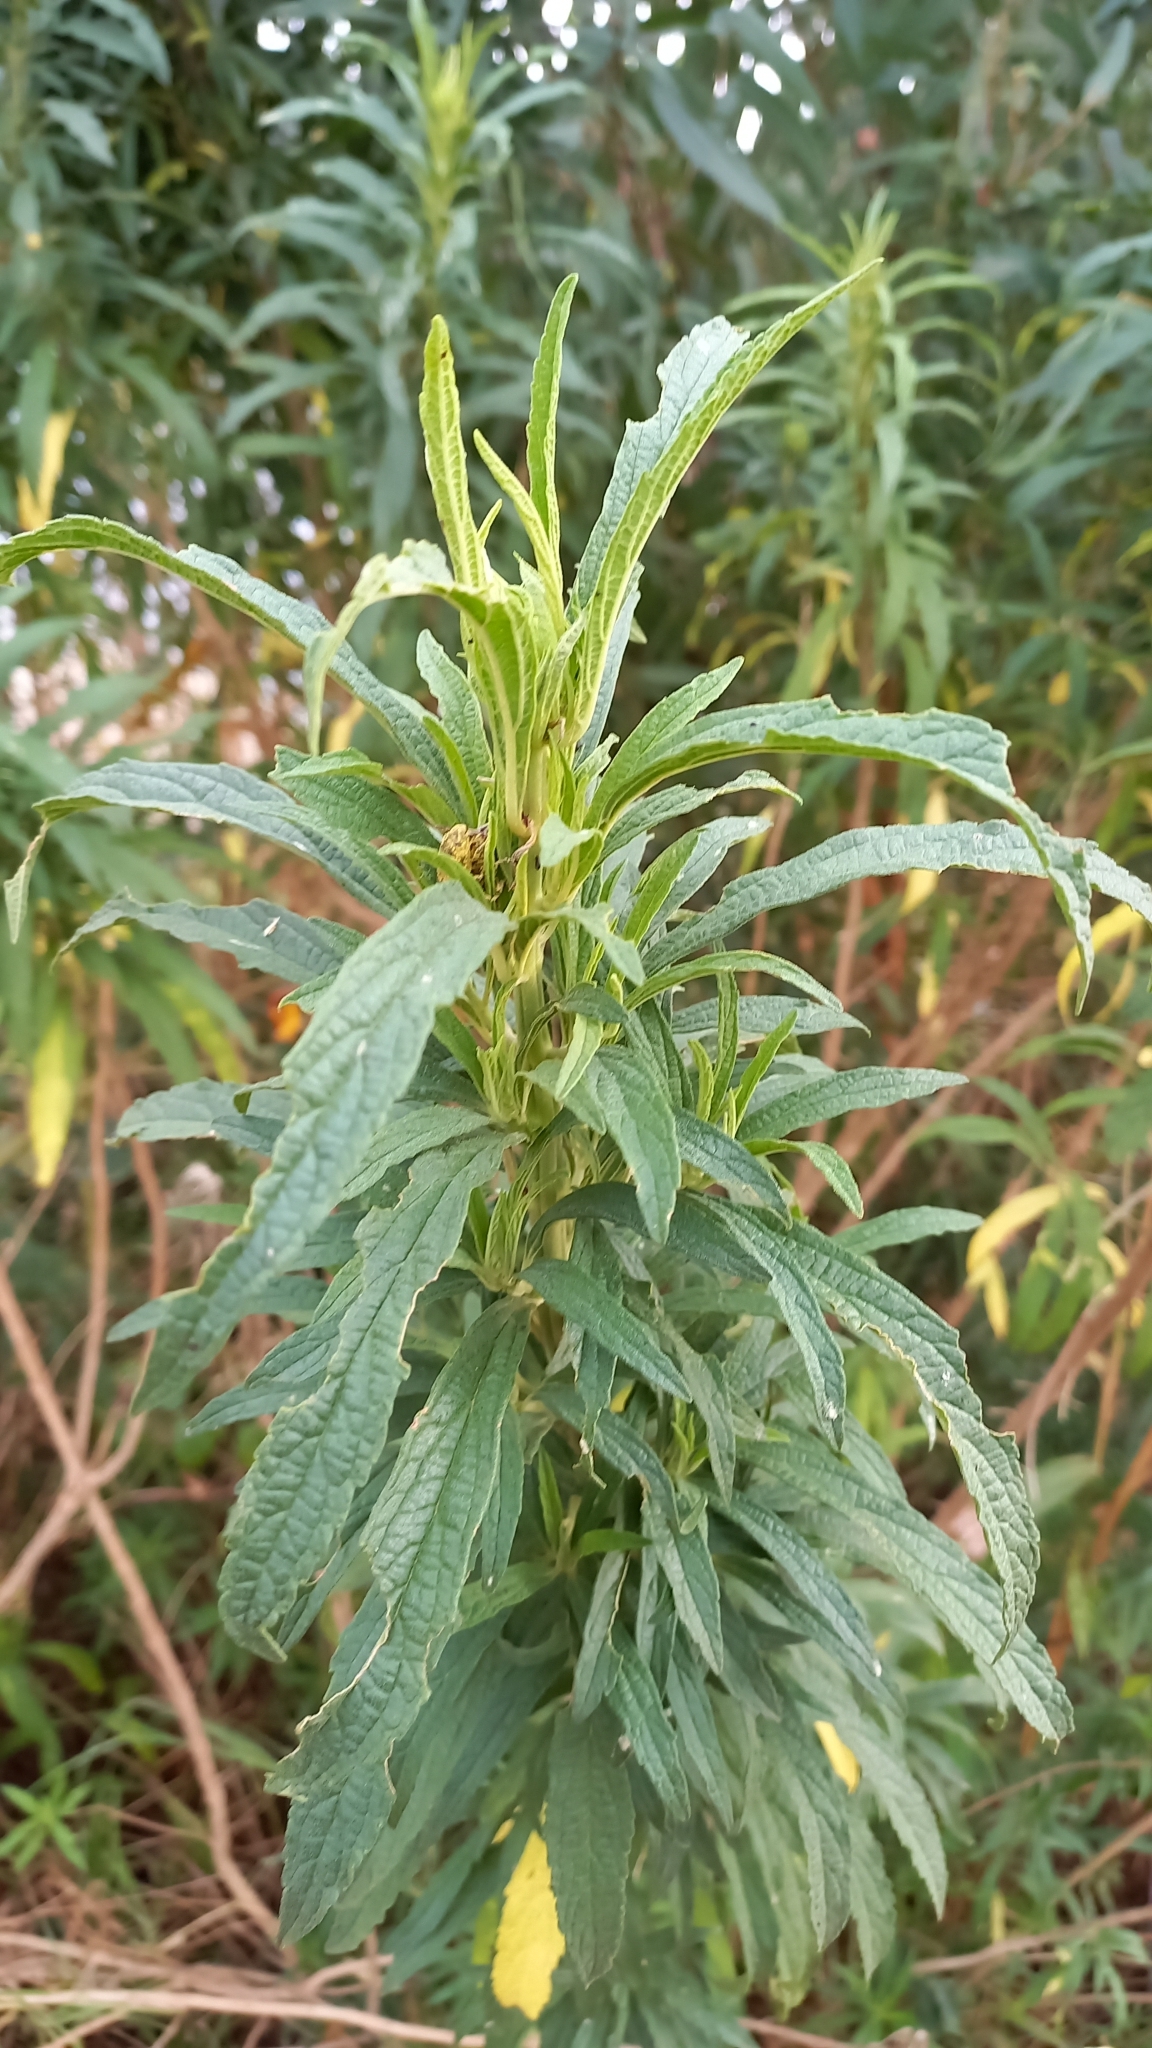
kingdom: Plantae
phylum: Tracheophyta
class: Magnoliopsida
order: Lamiales
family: Lamiaceae
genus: Leonotis
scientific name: Leonotis leonurus
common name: Lion's ear
